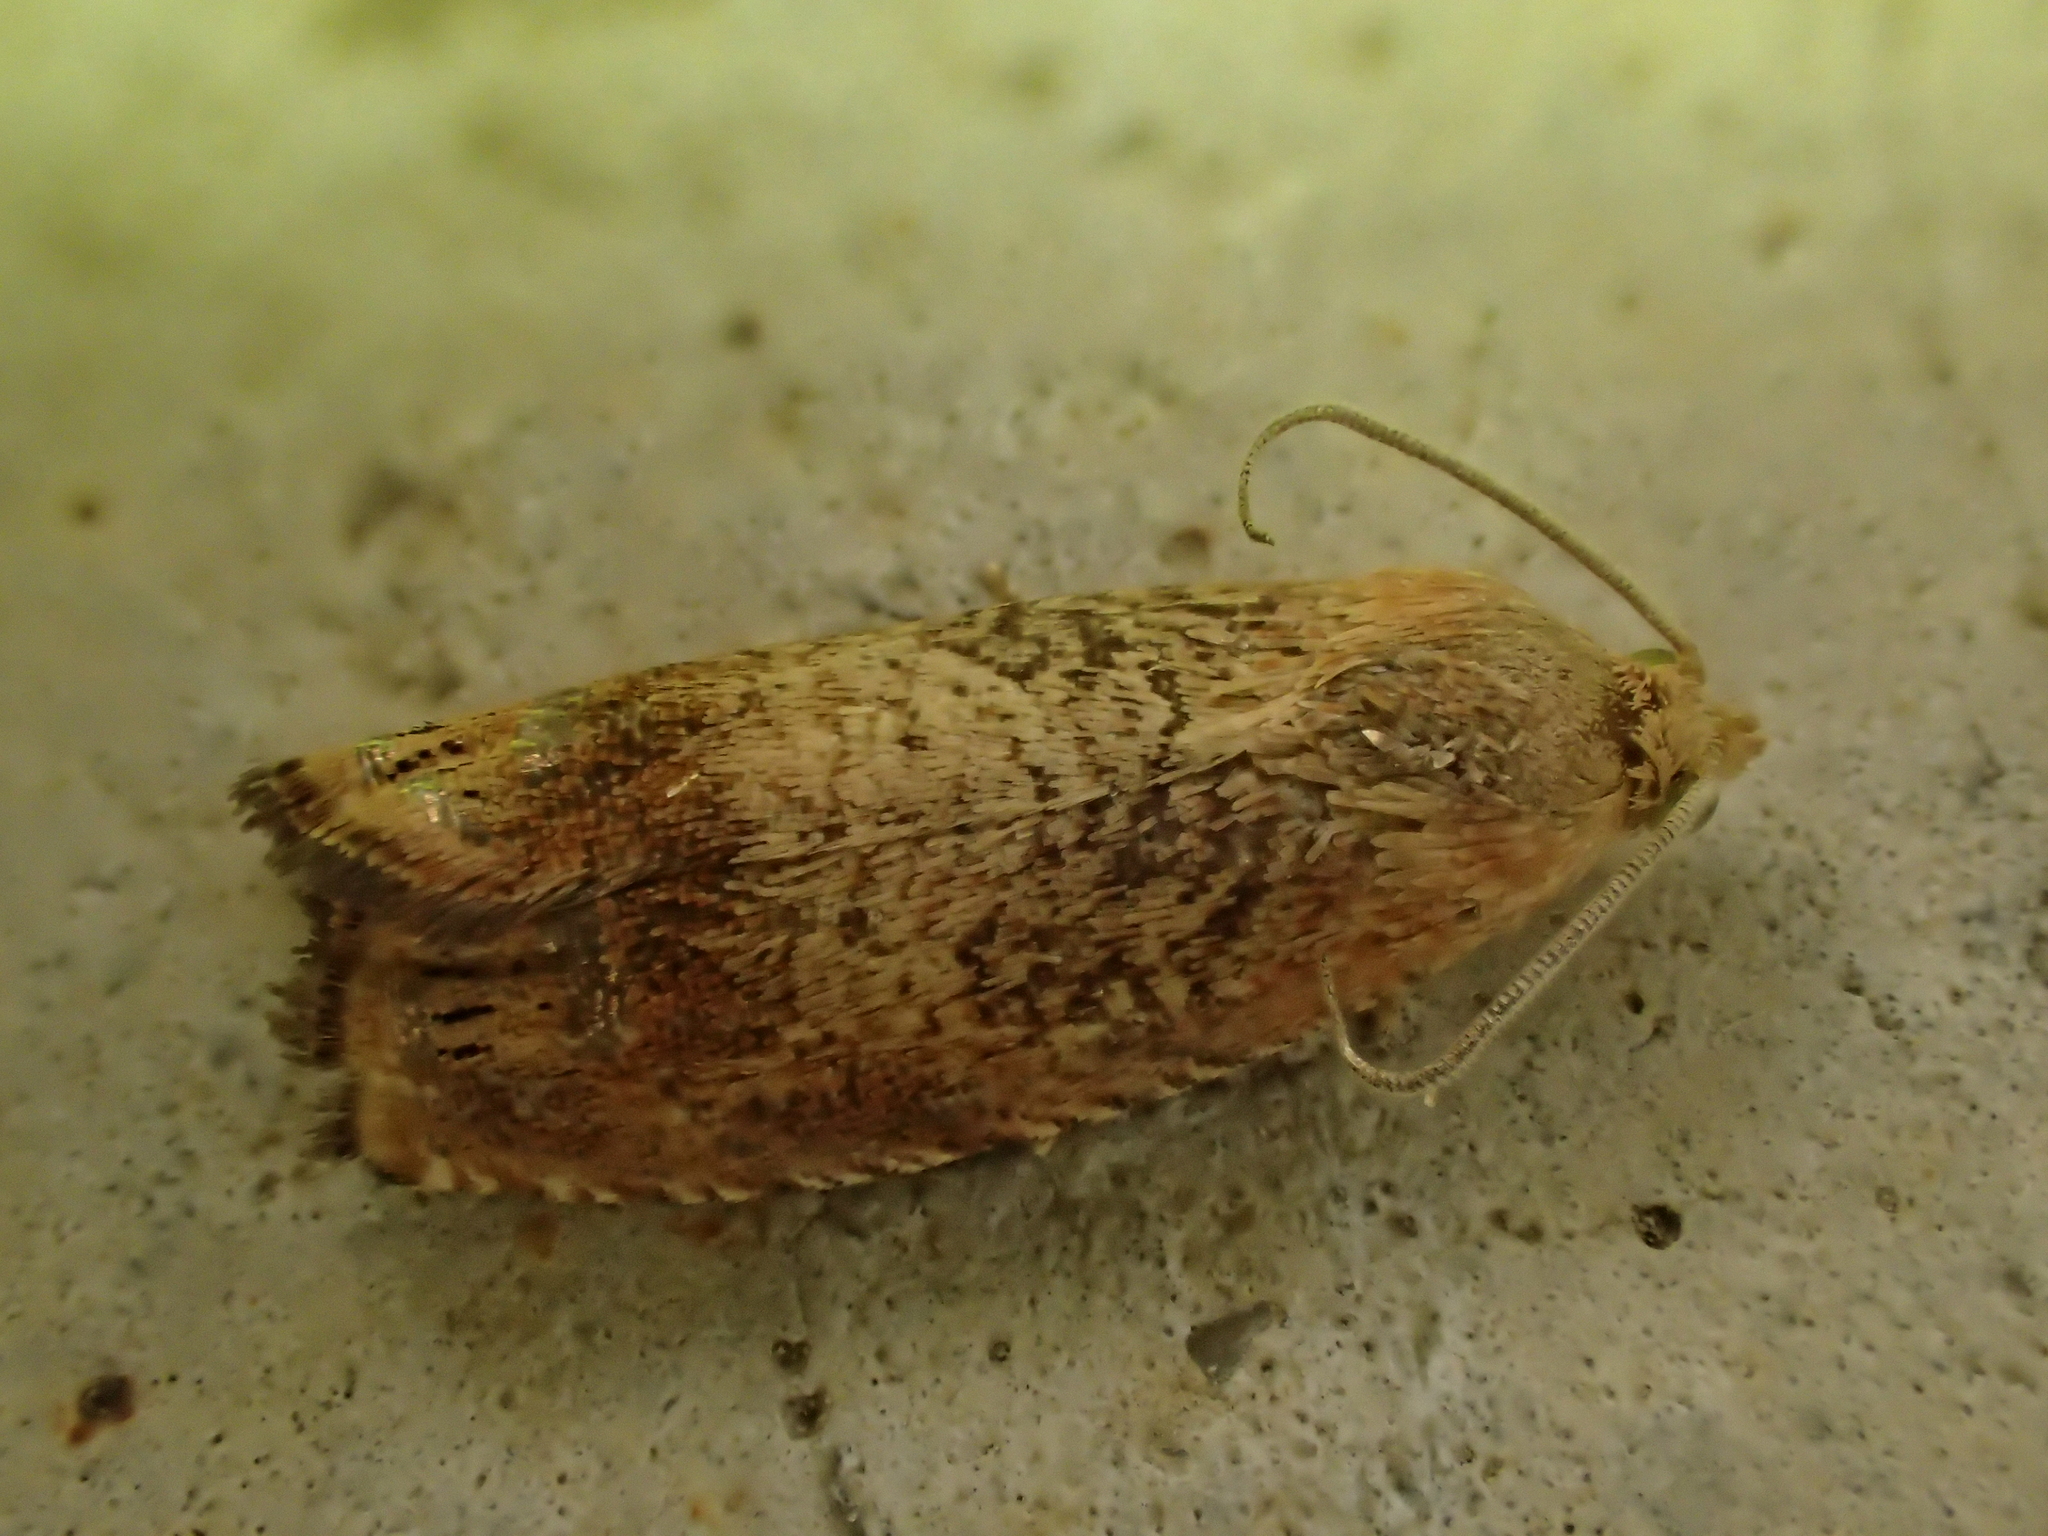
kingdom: Animalia
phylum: Arthropoda
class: Insecta
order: Lepidoptera
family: Tortricidae
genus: Cydia
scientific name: Cydia amplana
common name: Vagrant piercer
